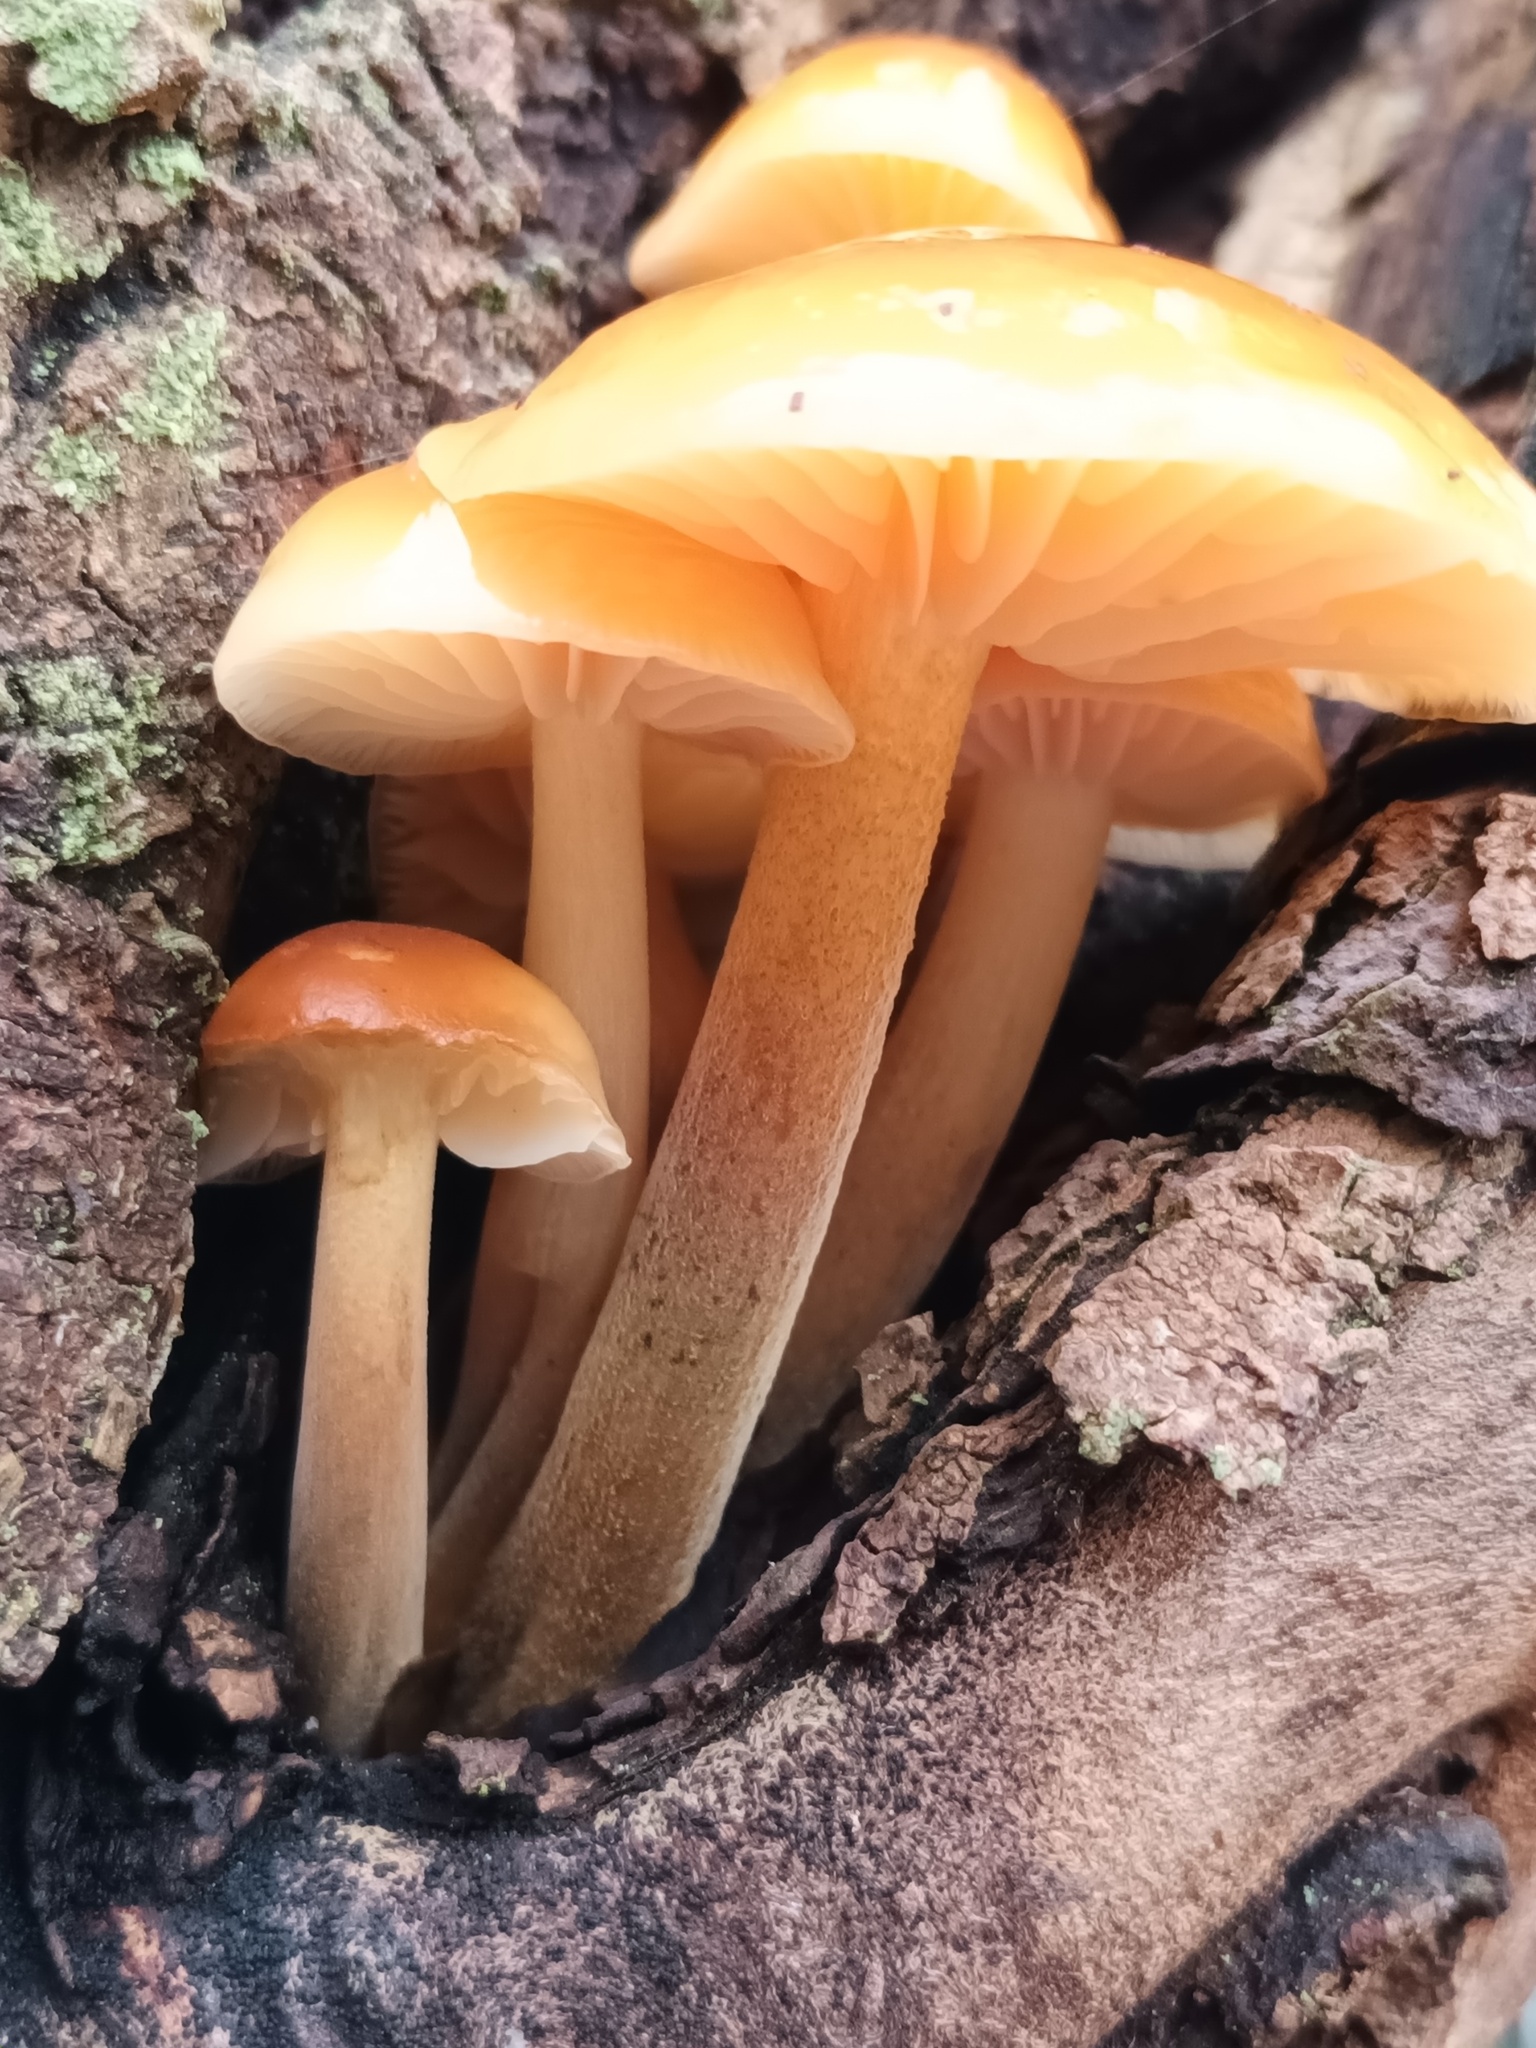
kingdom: Fungi
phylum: Basidiomycota
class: Agaricomycetes
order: Agaricales
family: Physalacriaceae
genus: Flammulina
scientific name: Flammulina
